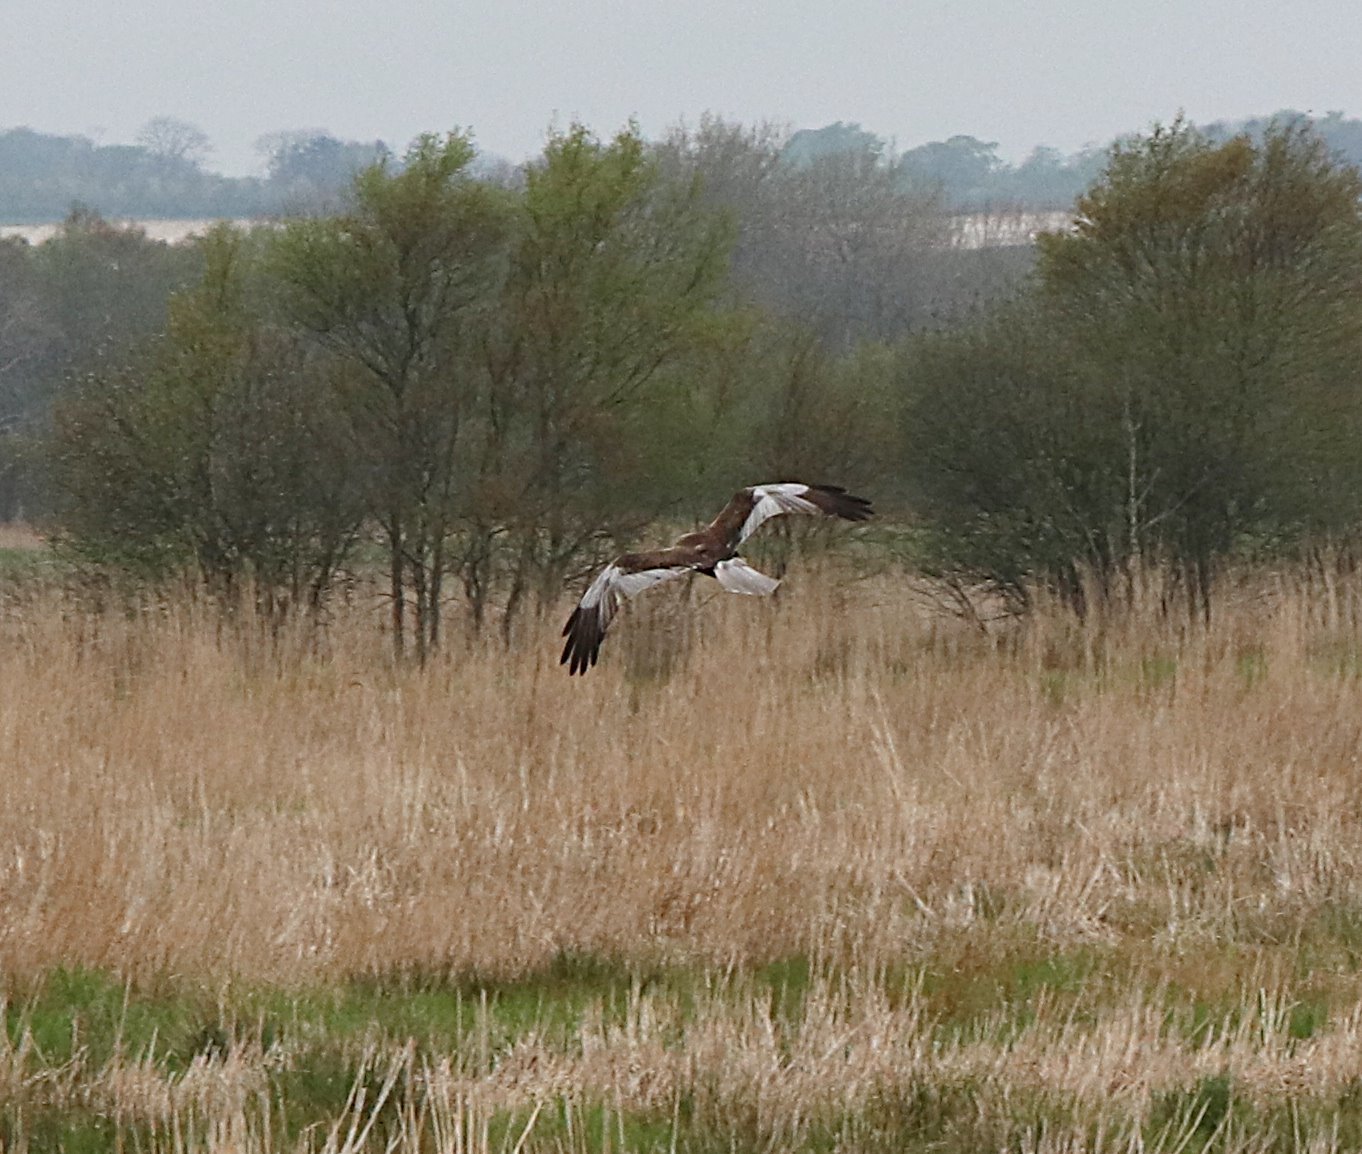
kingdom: Animalia
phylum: Chordata
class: Aves
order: Accipitriformes
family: Accipitridae
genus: Circus
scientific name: Circus aeruginosus
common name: Western marsh harrier
